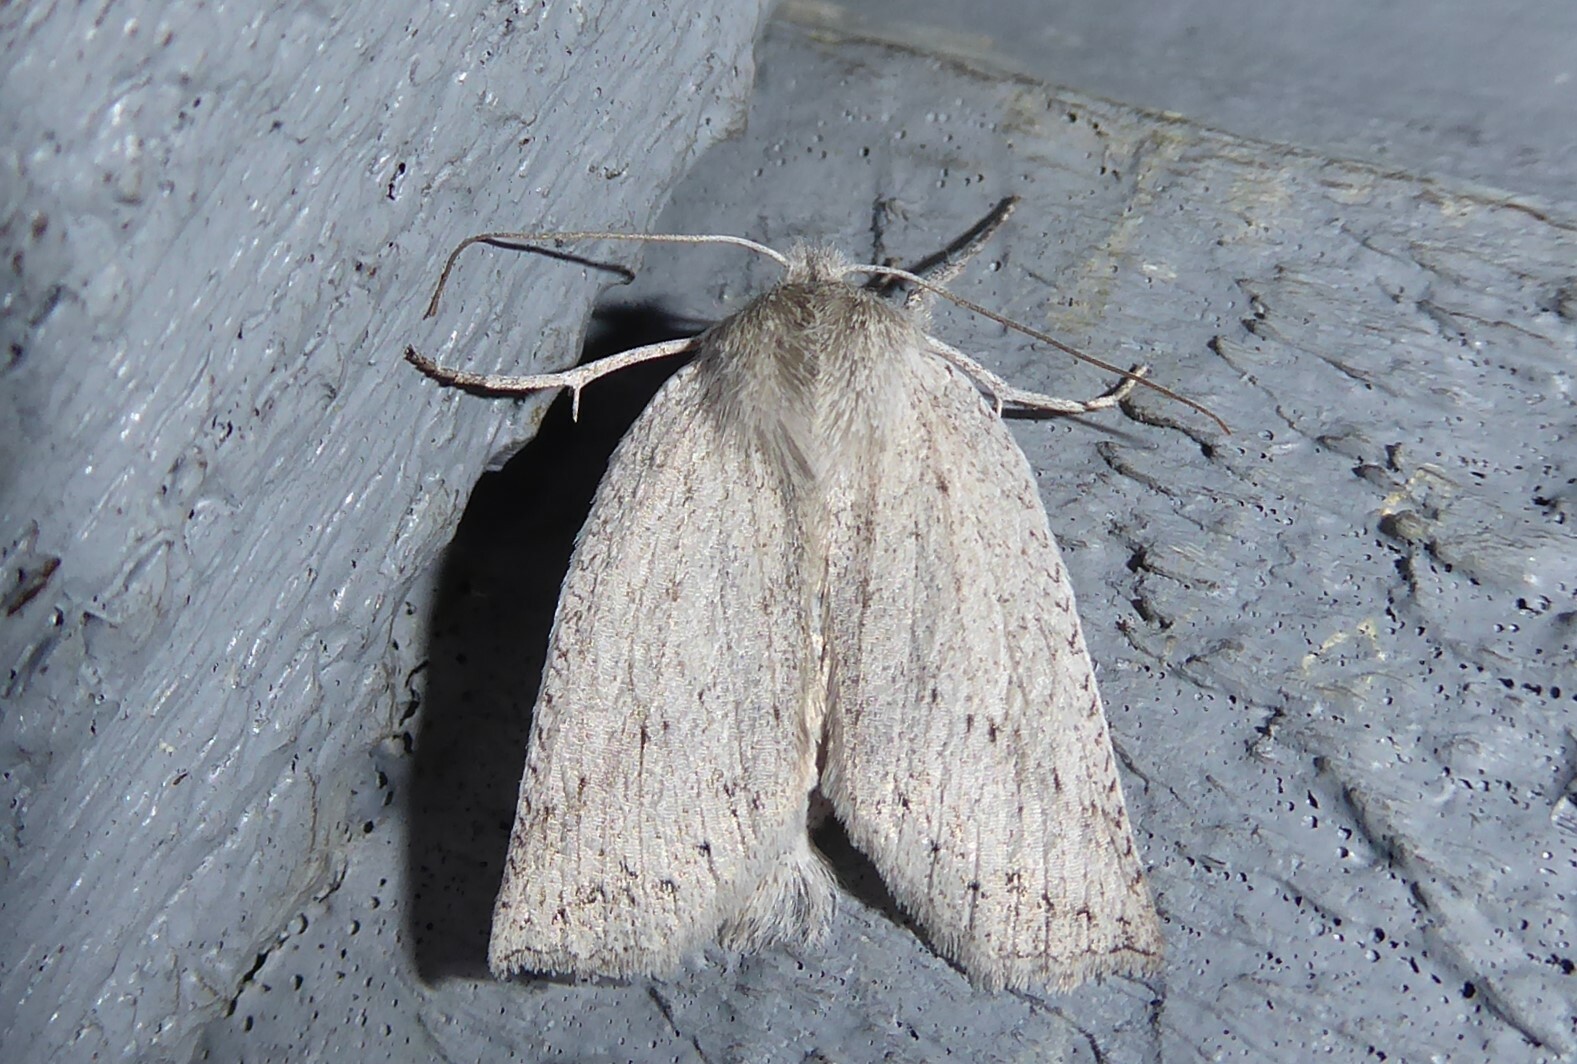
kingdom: Animalia
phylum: Arthropoda
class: Insecta
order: Lepidoptera
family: Geometridae
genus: Declana
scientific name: Declana leptomera
